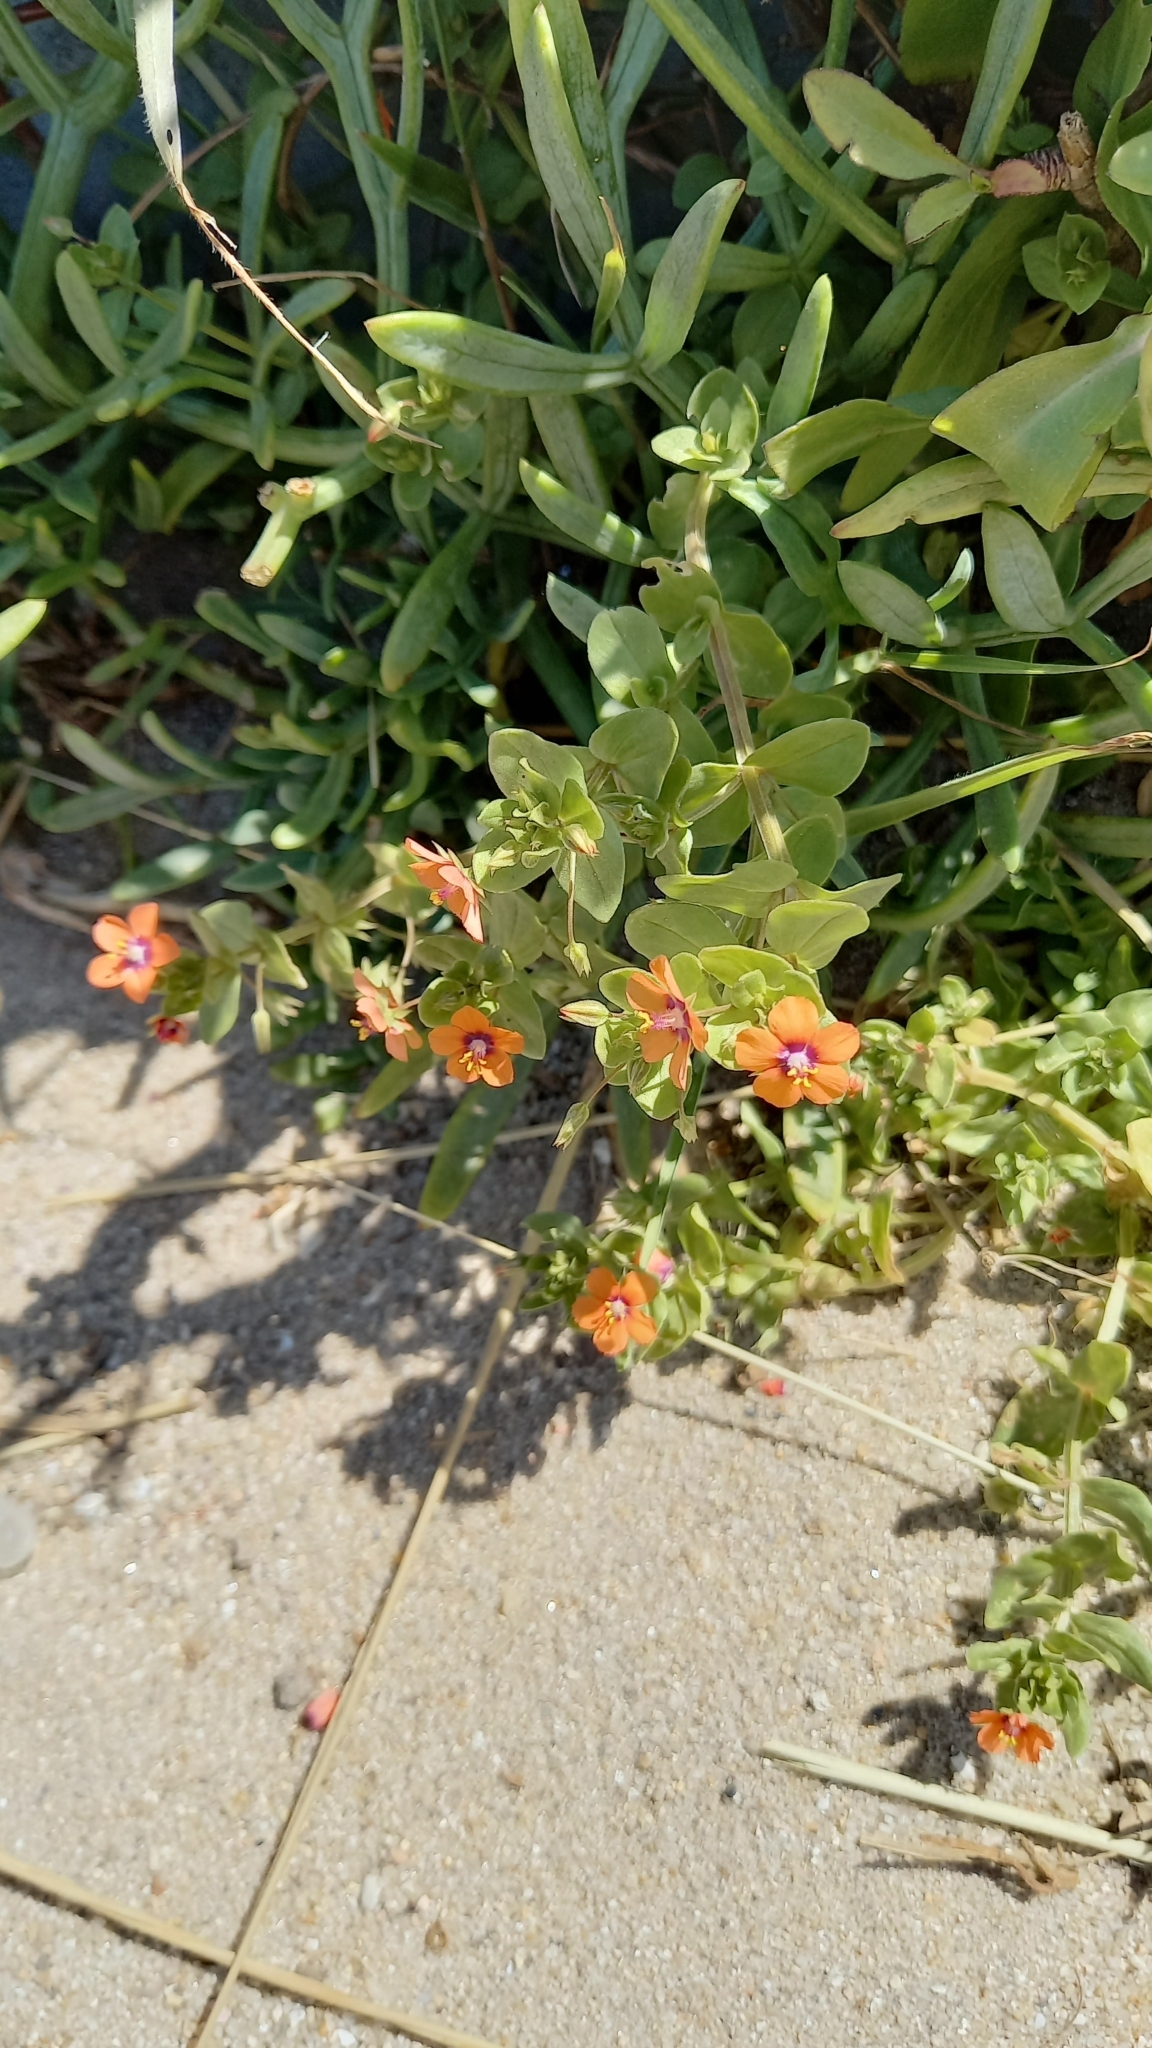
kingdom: Plantae
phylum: Tracheophyta
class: Magnoliopsida
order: Ericales
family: Primulaceae
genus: Lysimachia
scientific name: Lysimachia arvensis
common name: Scarlet pimpernel
